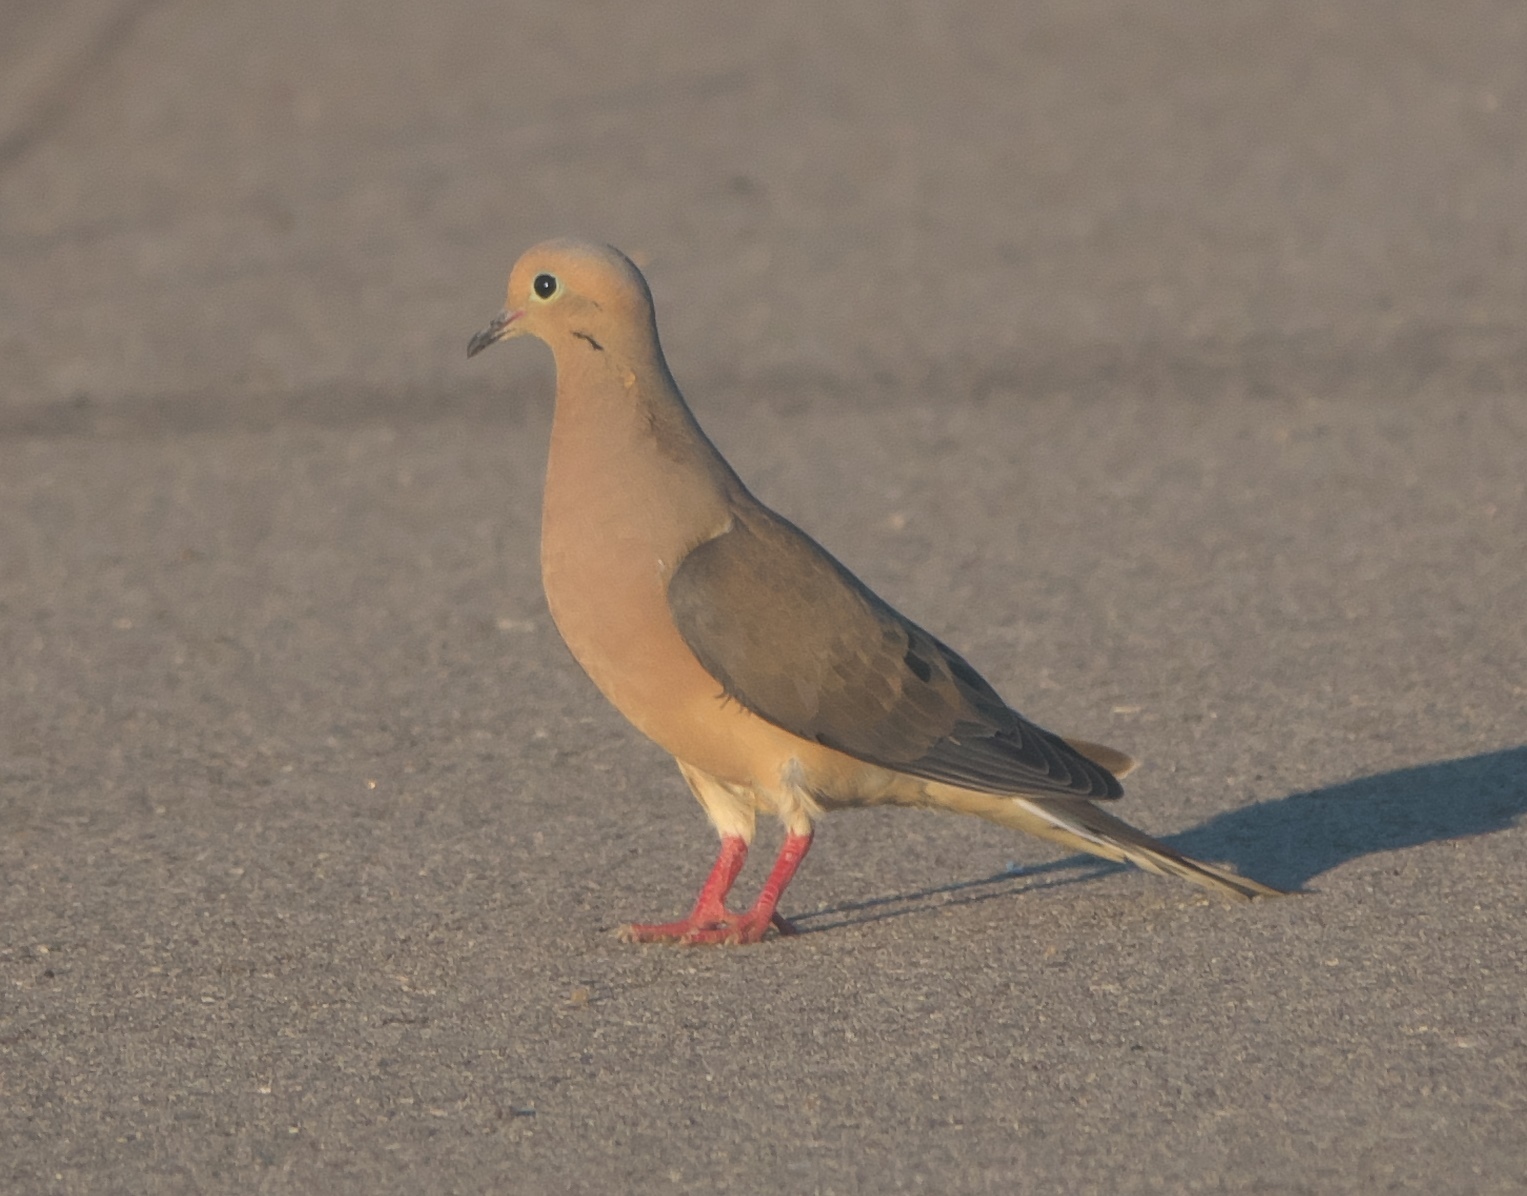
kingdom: Animalia
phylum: Chordata
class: Aves
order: Columbiformes
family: Columbidae
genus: Zenaida
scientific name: Zenaida macroura
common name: Mourning dove
